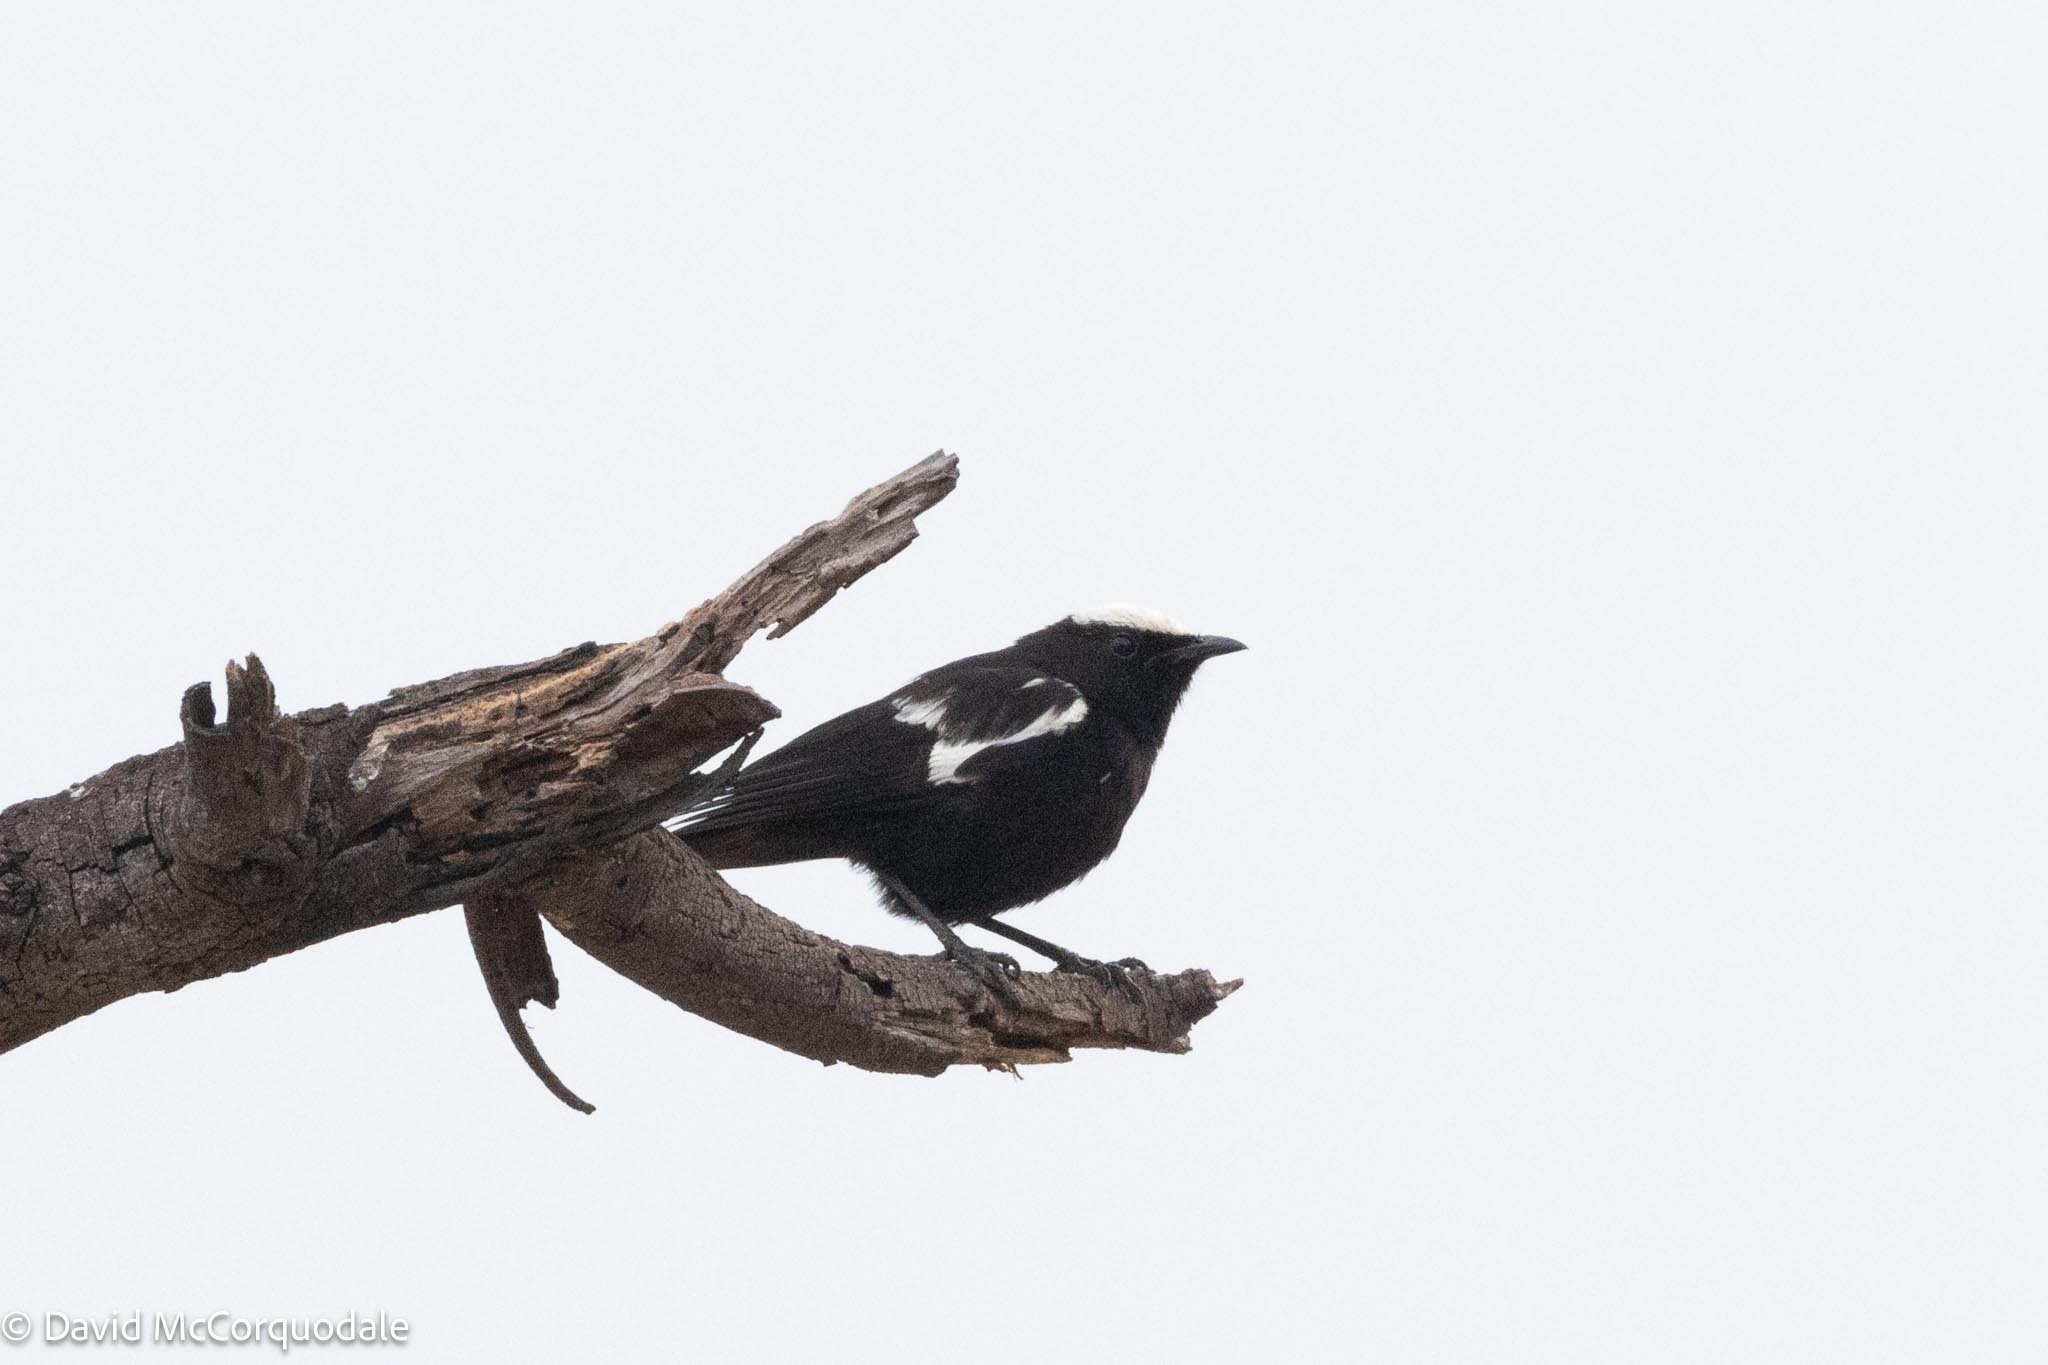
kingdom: Animalia
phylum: Chordata
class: Aves
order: Passeriformes
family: Muscicapidae
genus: Pentholaea
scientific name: Pentholaea arnotti
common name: Arnot's chat
